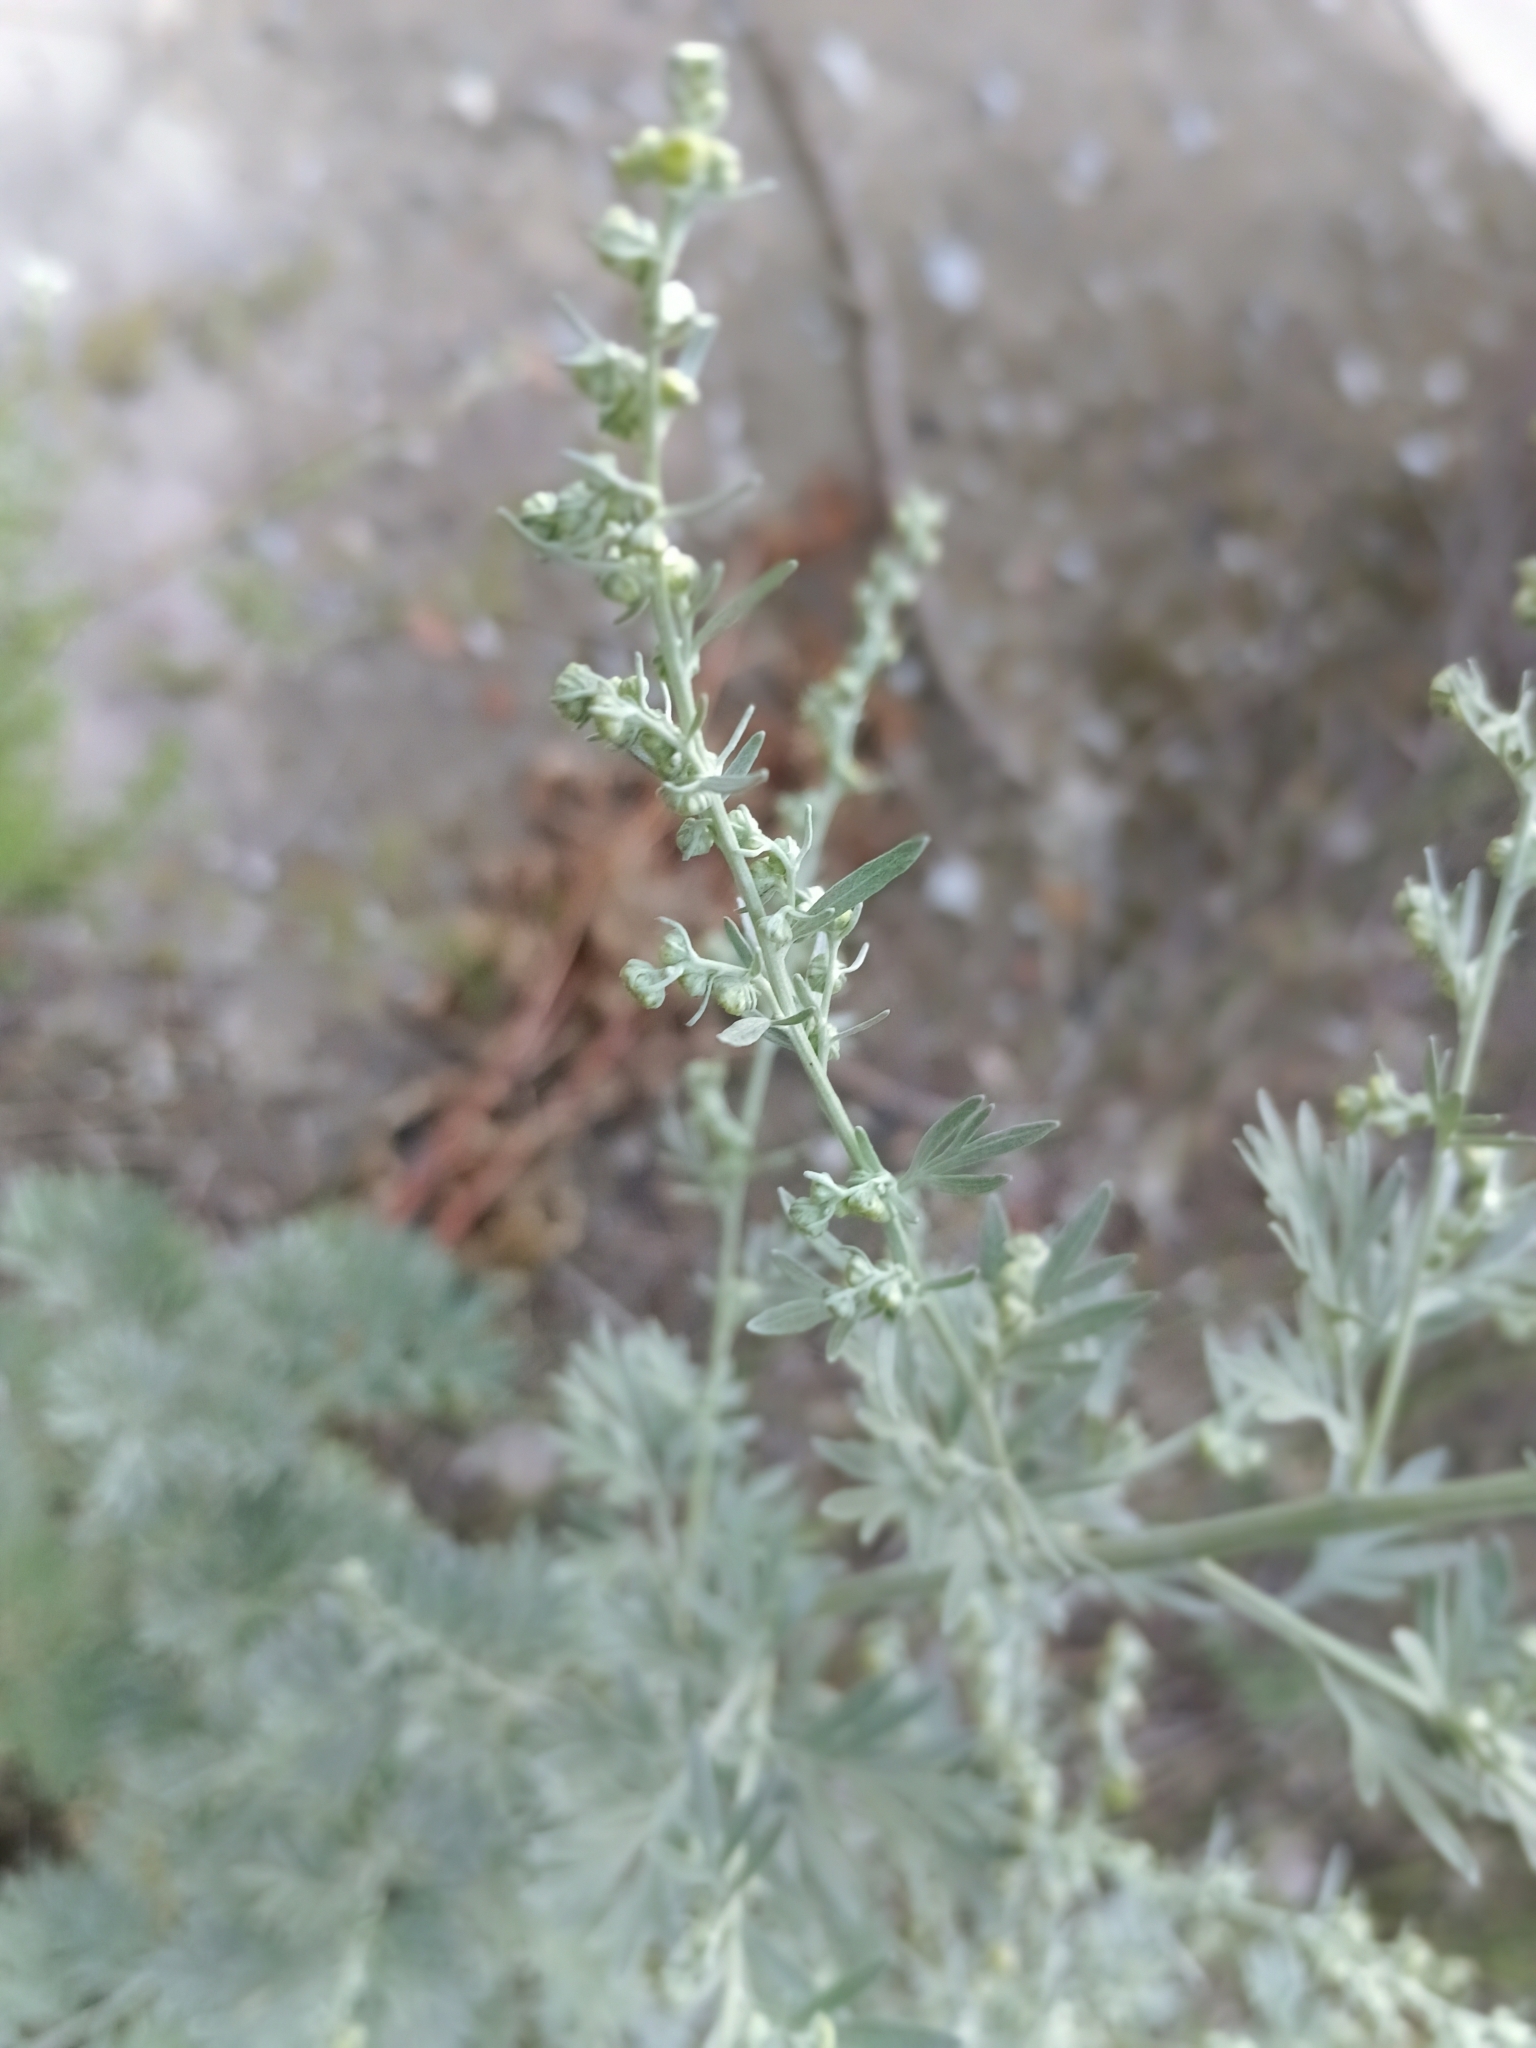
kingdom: Plantae
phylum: Tracheophyta
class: Magnoliopsida
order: Asterales
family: Asteraceae
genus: Artemisia
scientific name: Artemisia absinthium
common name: Wormwood
